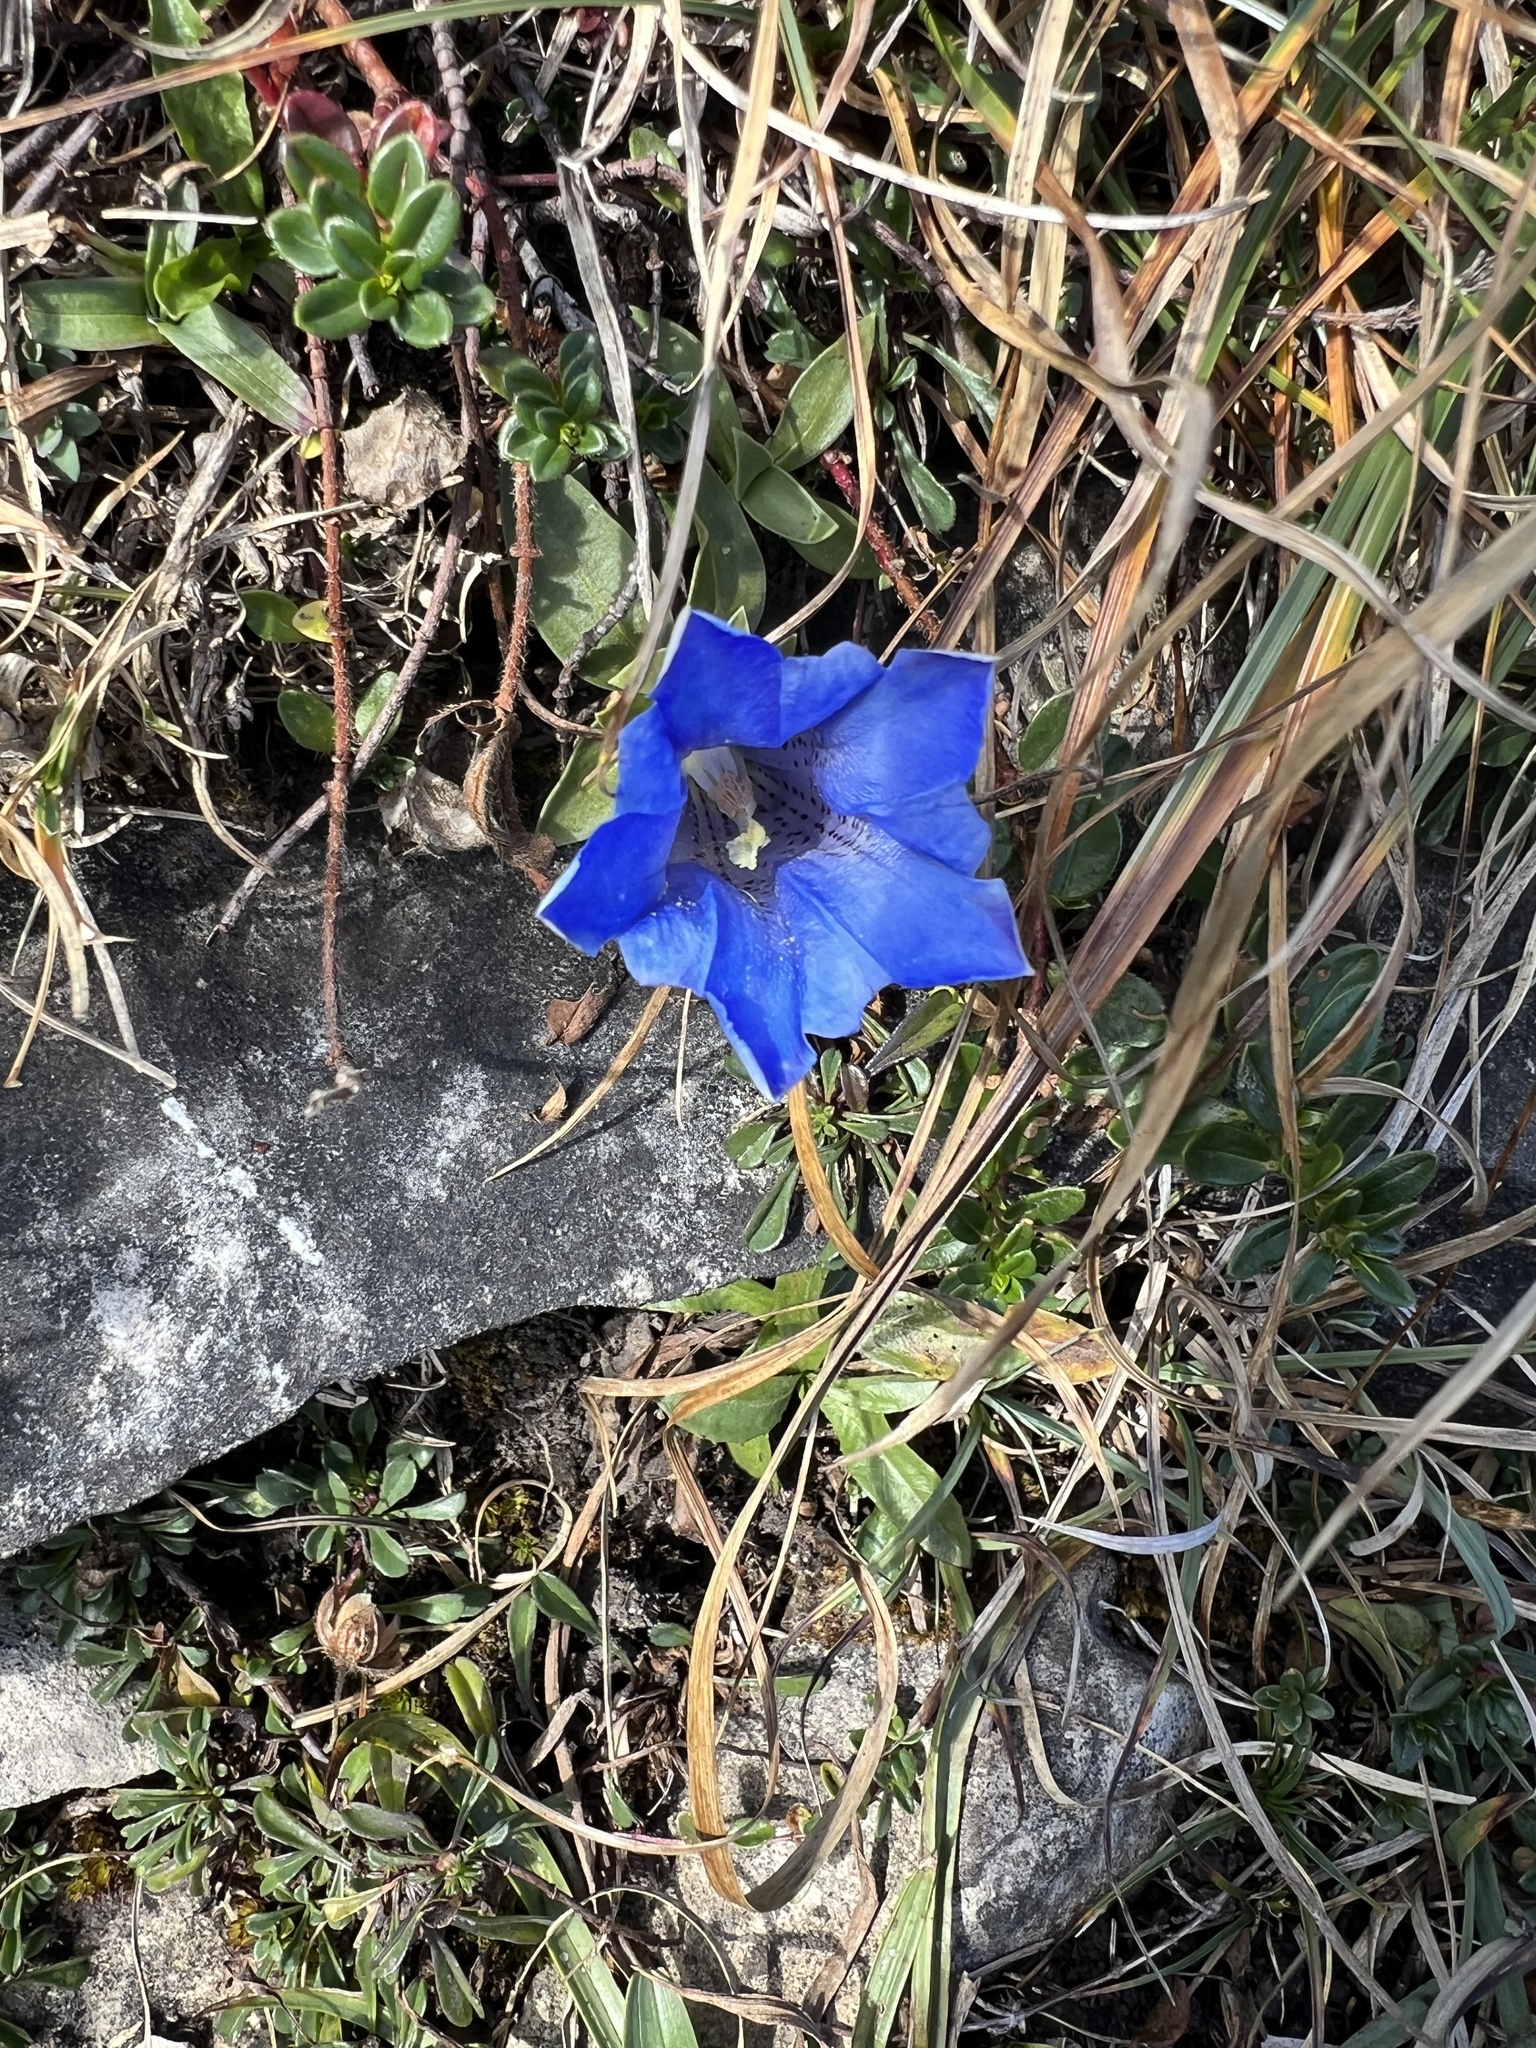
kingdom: Plantae
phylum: Tracheophyta
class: Magnoliopsida
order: Gentianales
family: Gentianaceae
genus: Gentiana
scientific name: Gentiana clusii
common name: Trumpet gentian
